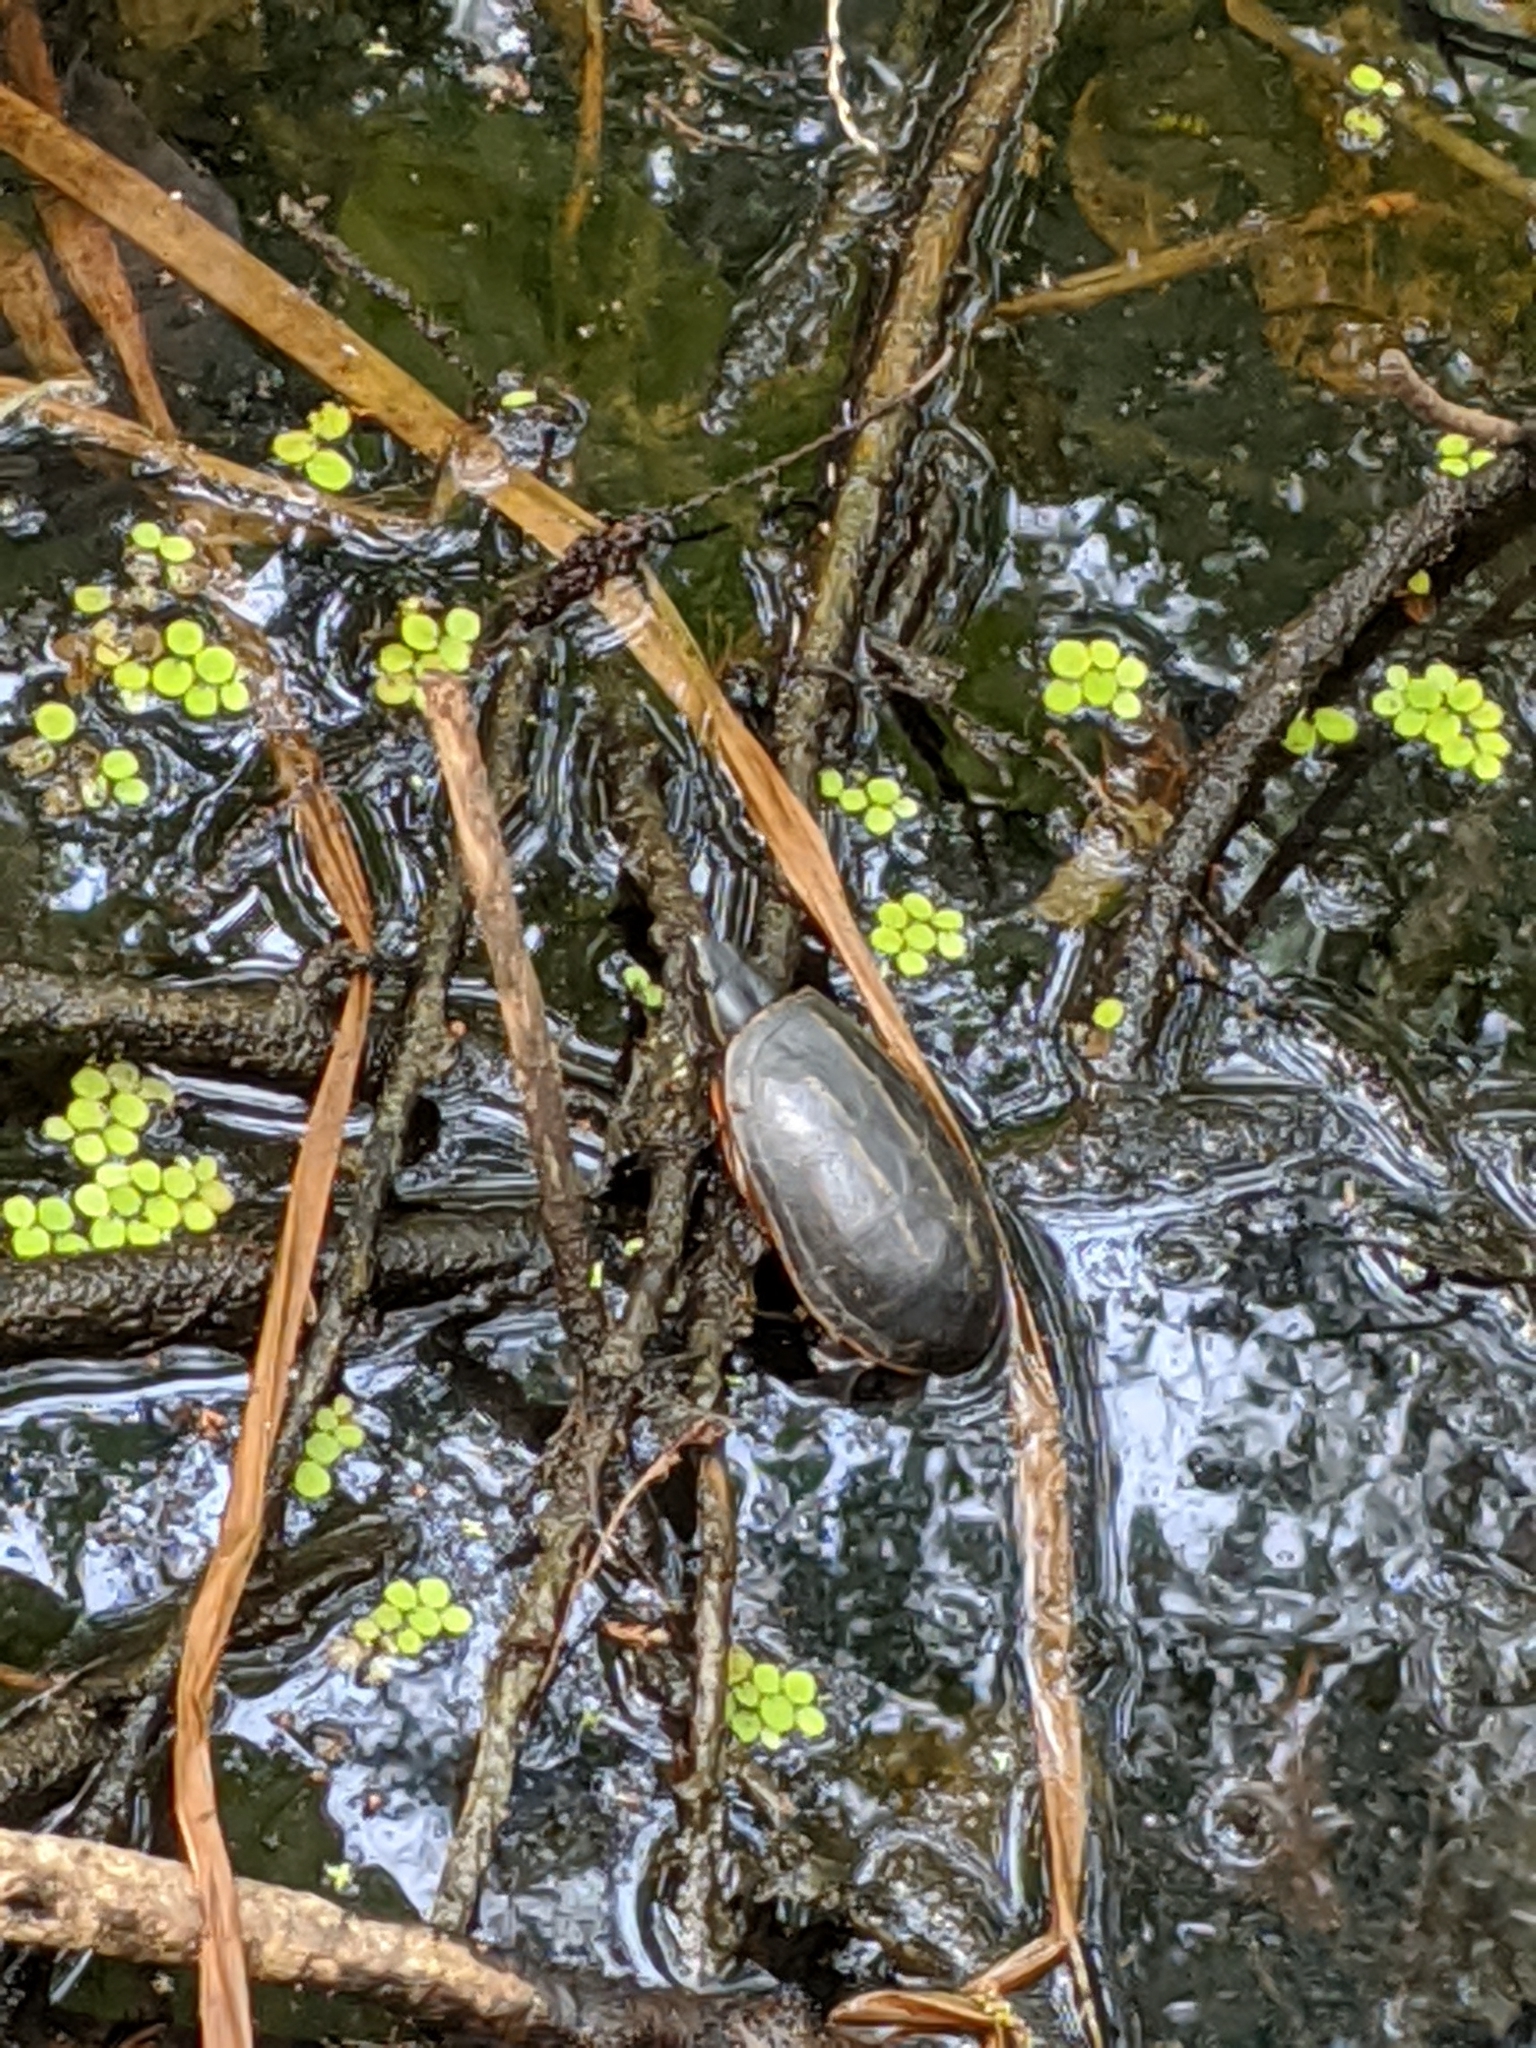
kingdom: Animalia
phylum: Chordata
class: Testudines
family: Kinosternidae
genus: Kinosternon
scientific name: Kinosternon baurii
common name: Striped mud turtle
